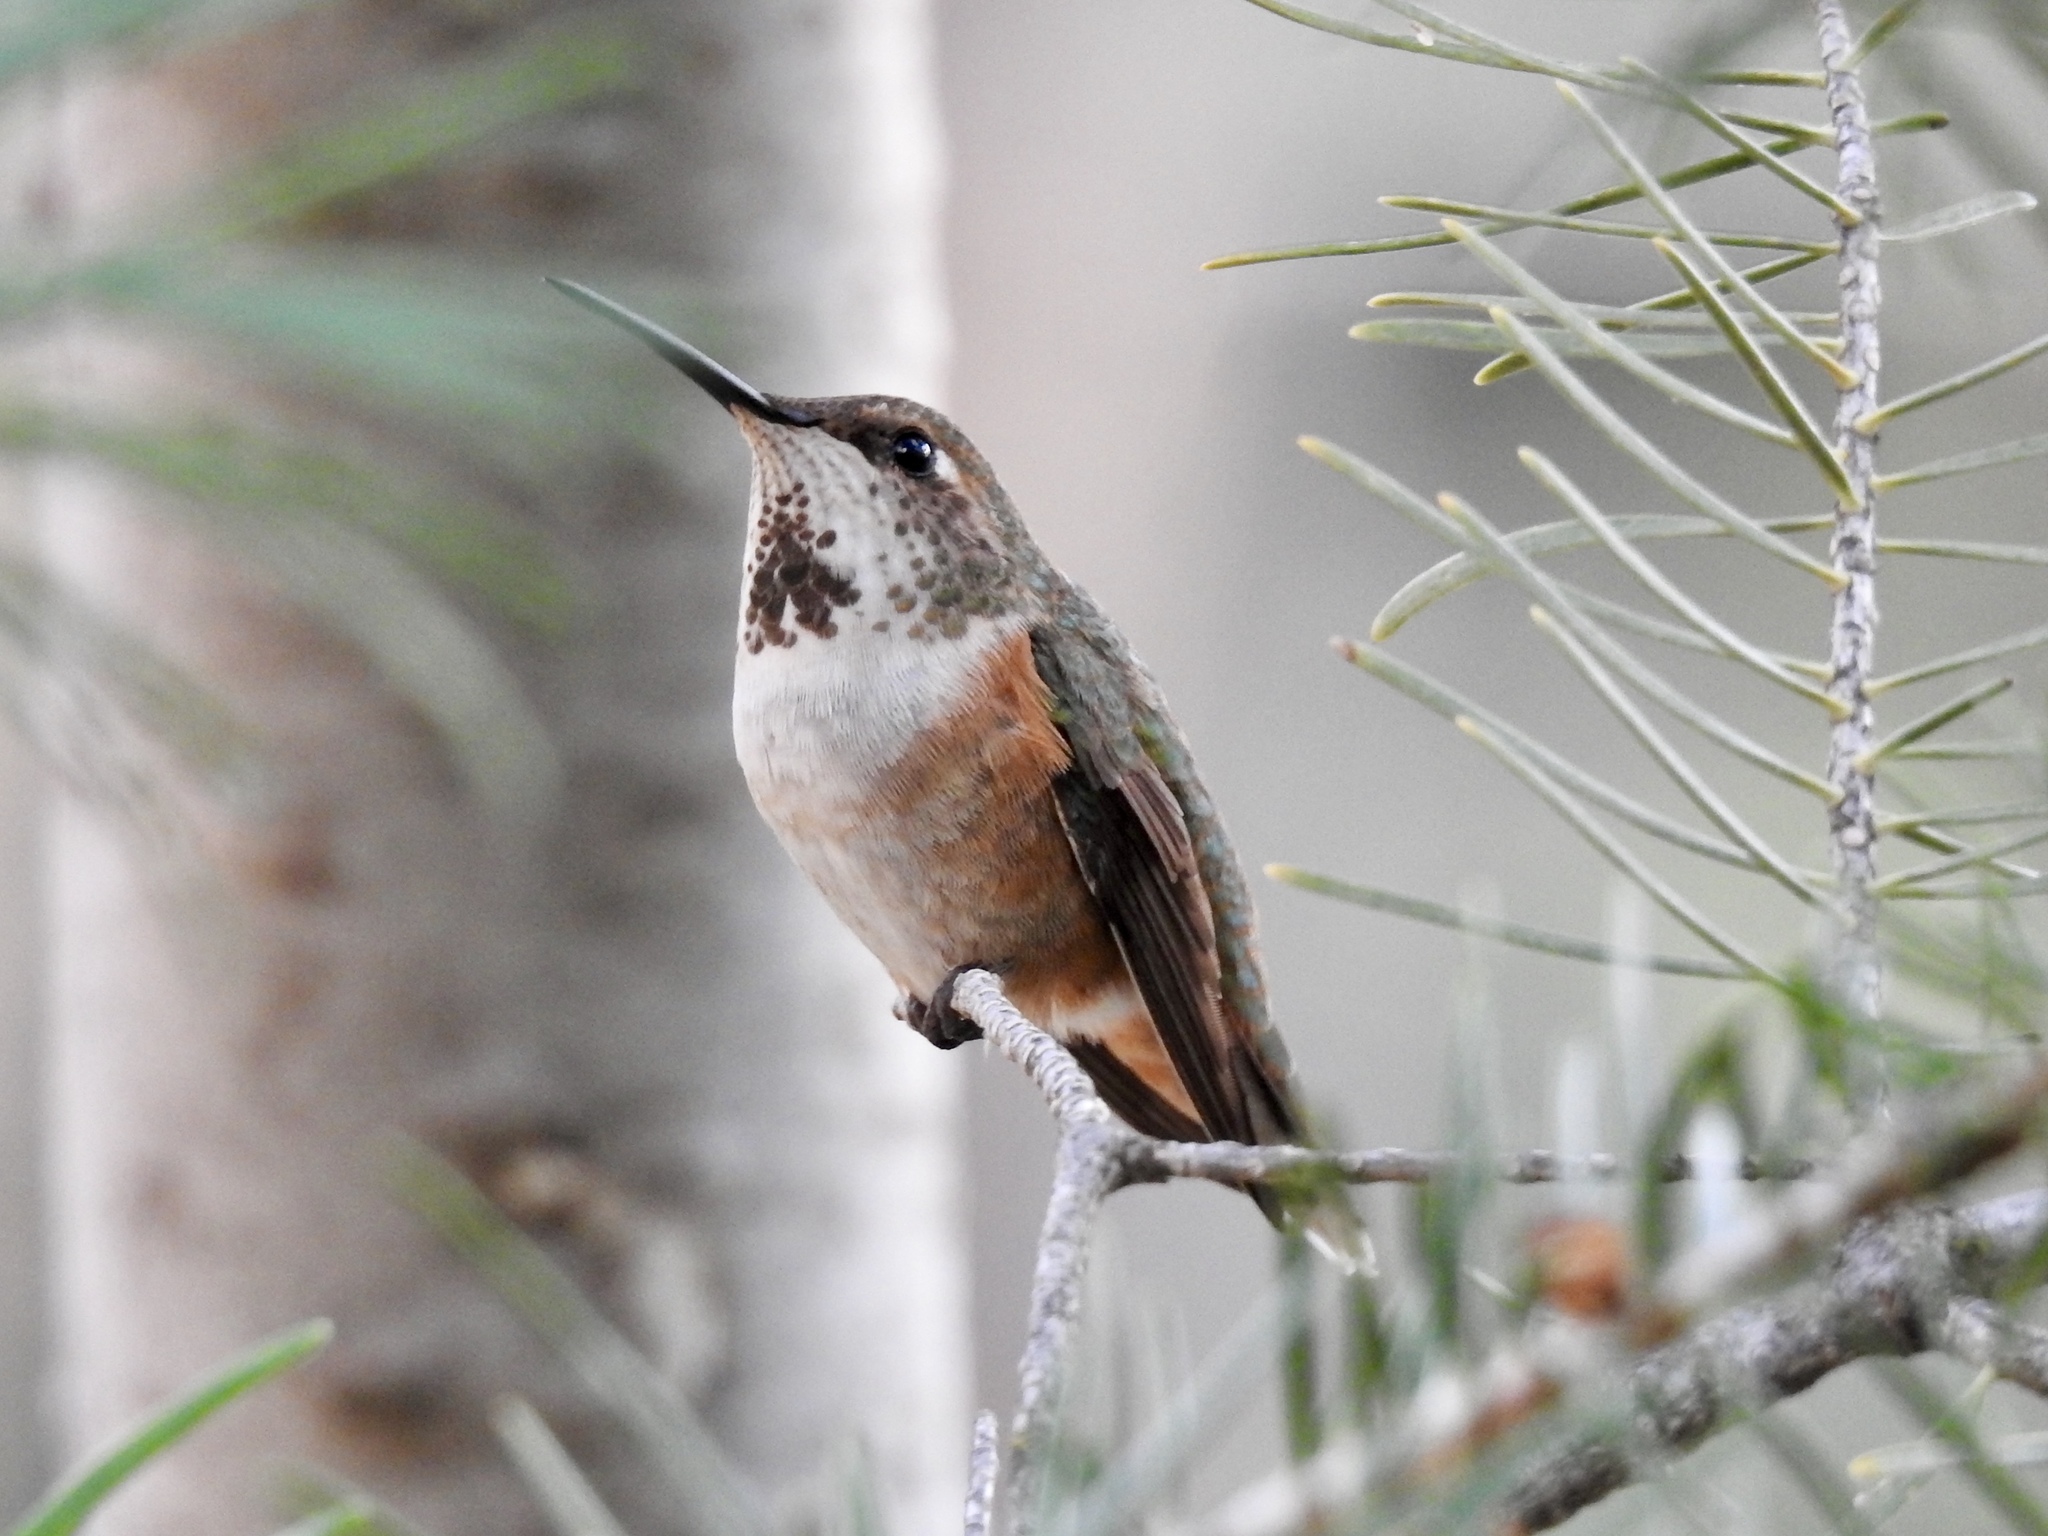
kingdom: Animalia
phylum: Chordata
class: Aves
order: Apodiformes
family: Trochilidae
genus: Selasphorus
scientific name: Selasphorus rufus
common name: Rufous hummingbird
